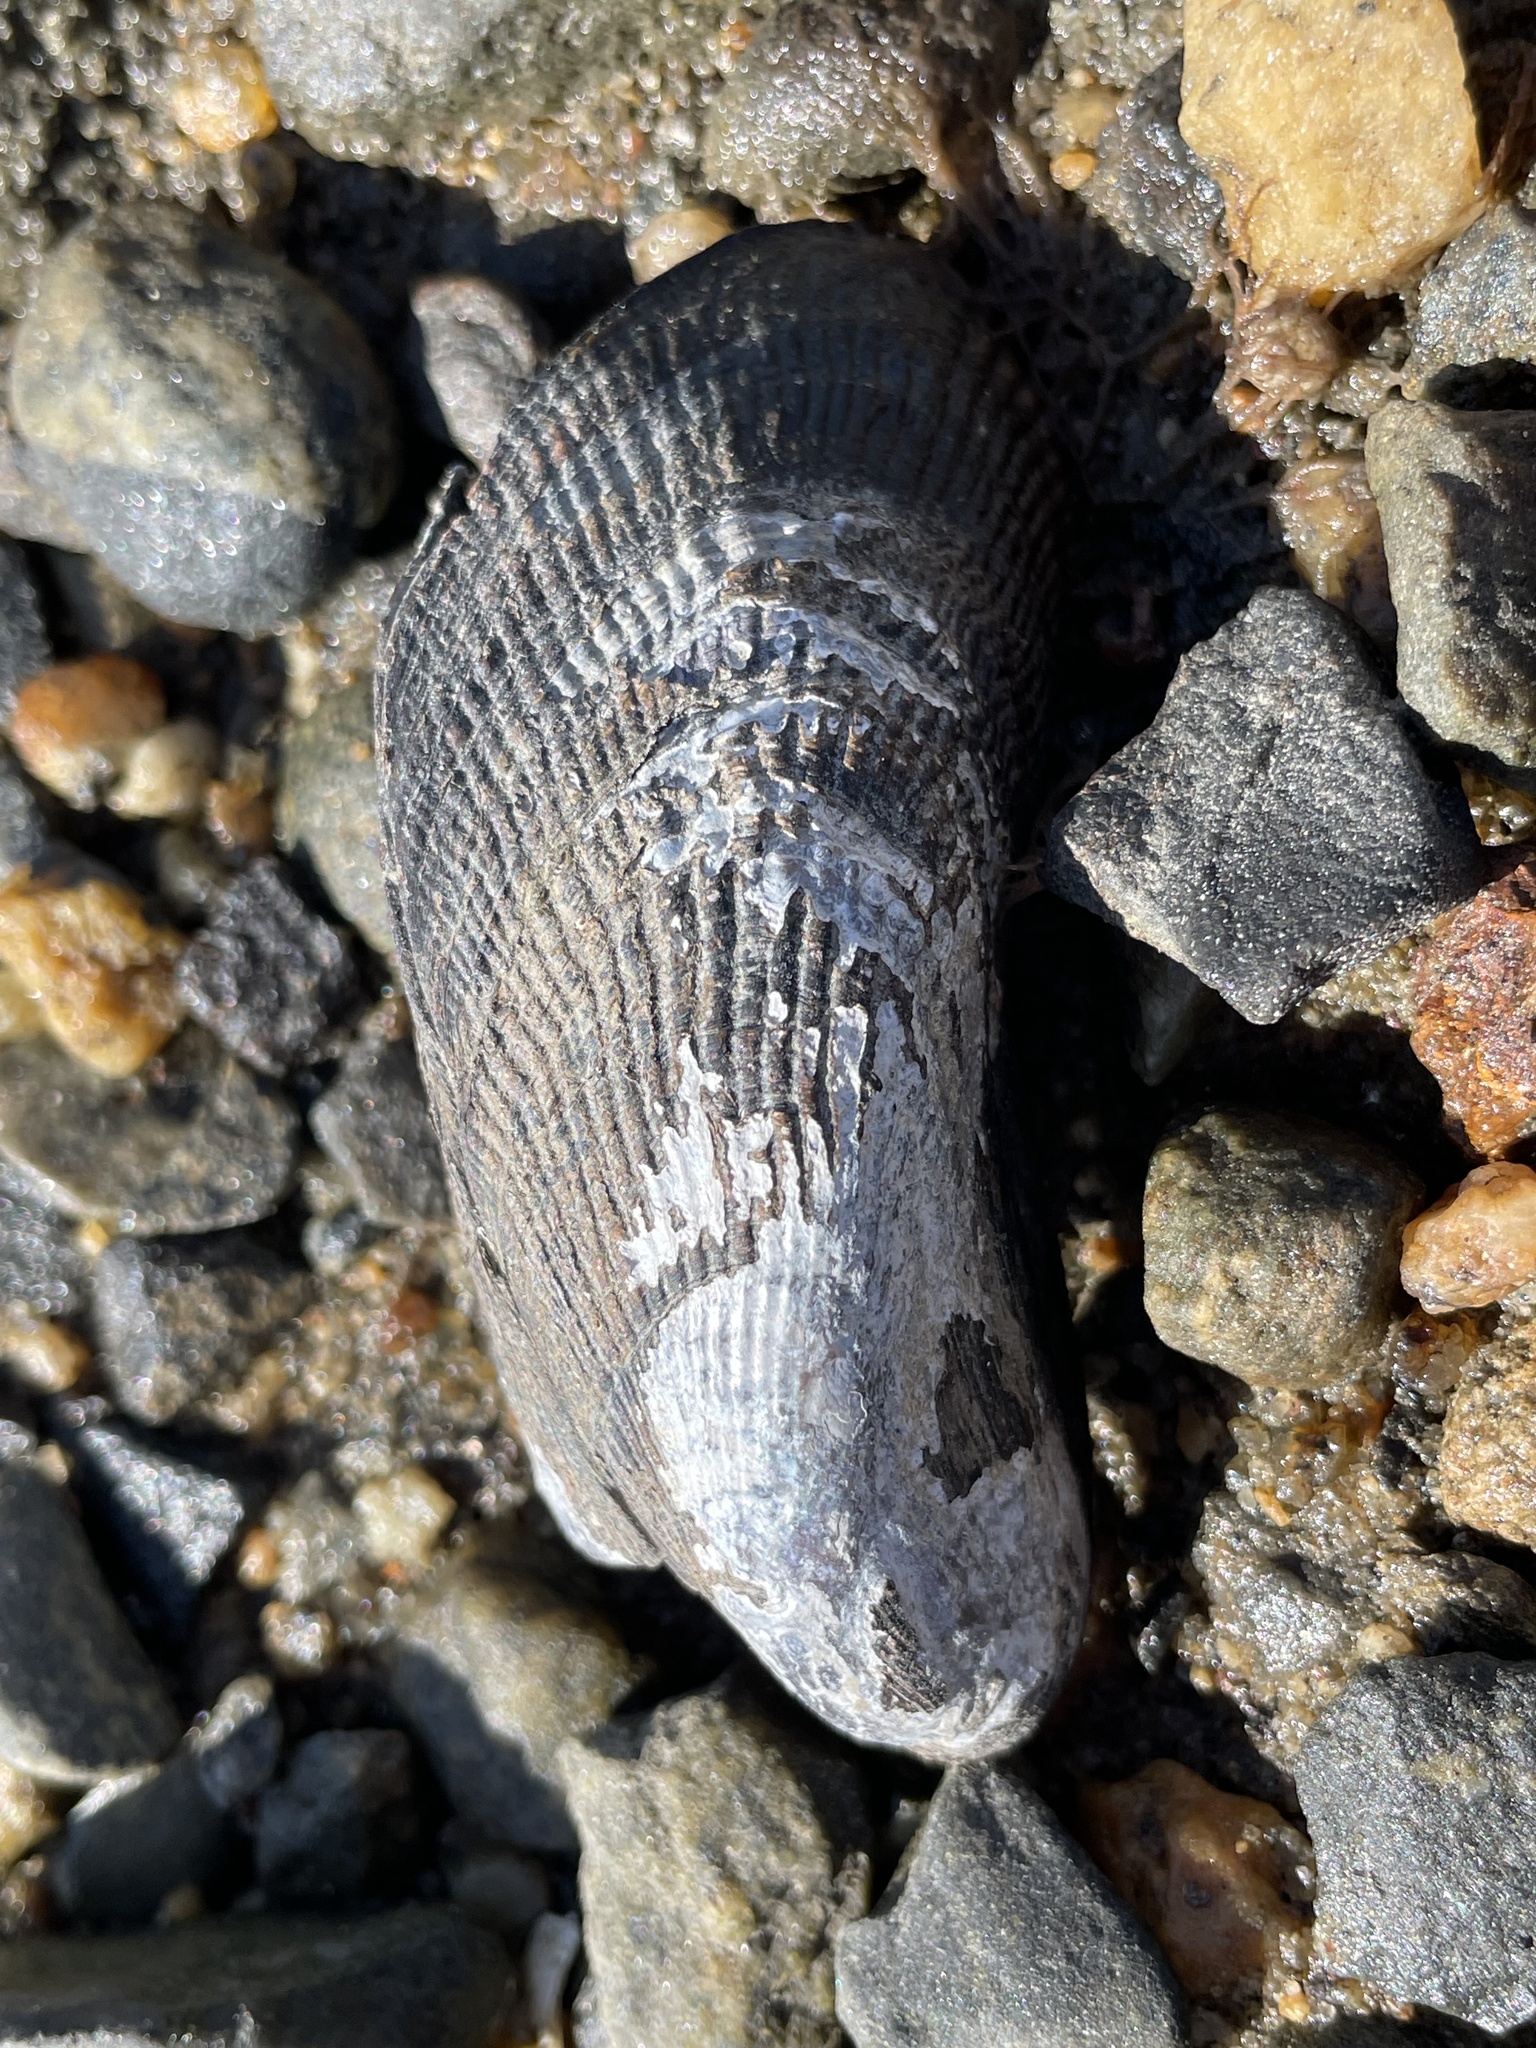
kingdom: Animalia
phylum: Mollusca
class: Bivalvia
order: Mytilida
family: Mytilidae
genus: Geukensia
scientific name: Geukensia demissa
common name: Ribbed mussel
